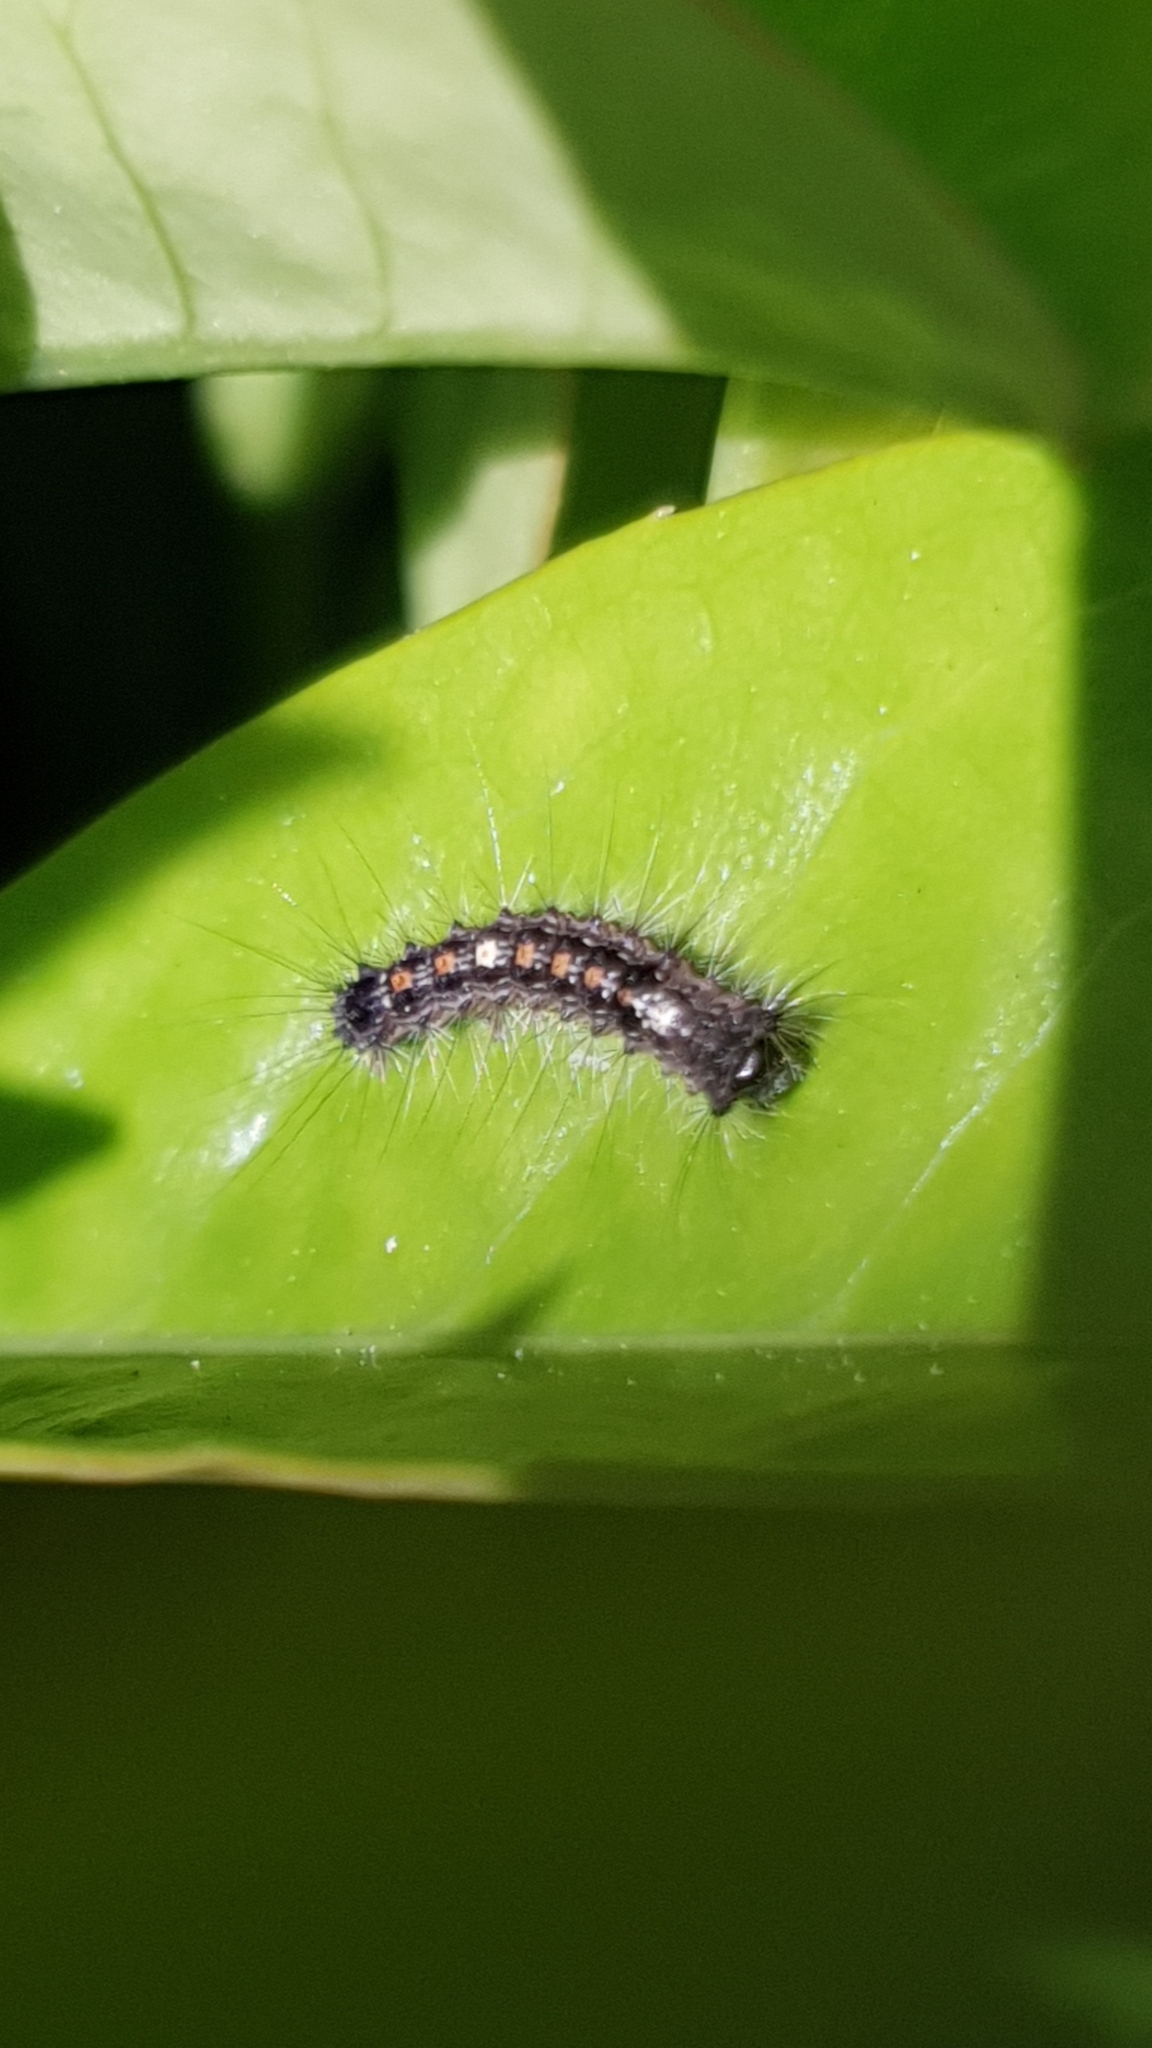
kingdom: Animalia
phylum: Arthropoda
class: Insecta
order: Lepidoptera
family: Erebidae
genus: Lymantria
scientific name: Lymantria dispar
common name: Gypsy moth
